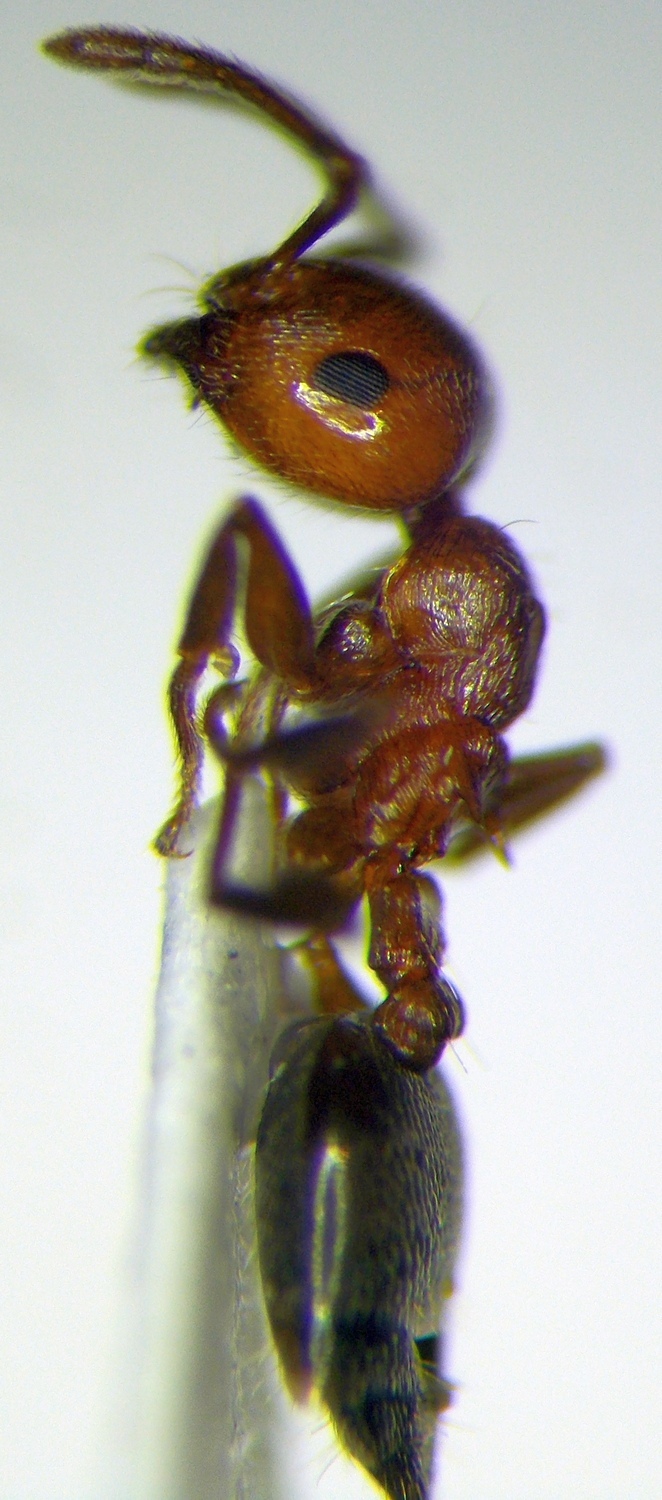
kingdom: Animalia
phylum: Arthropoda
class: Insecta
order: Hymenoptera
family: Formicidae
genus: Crematogaster
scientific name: Crematogaster schmidti
